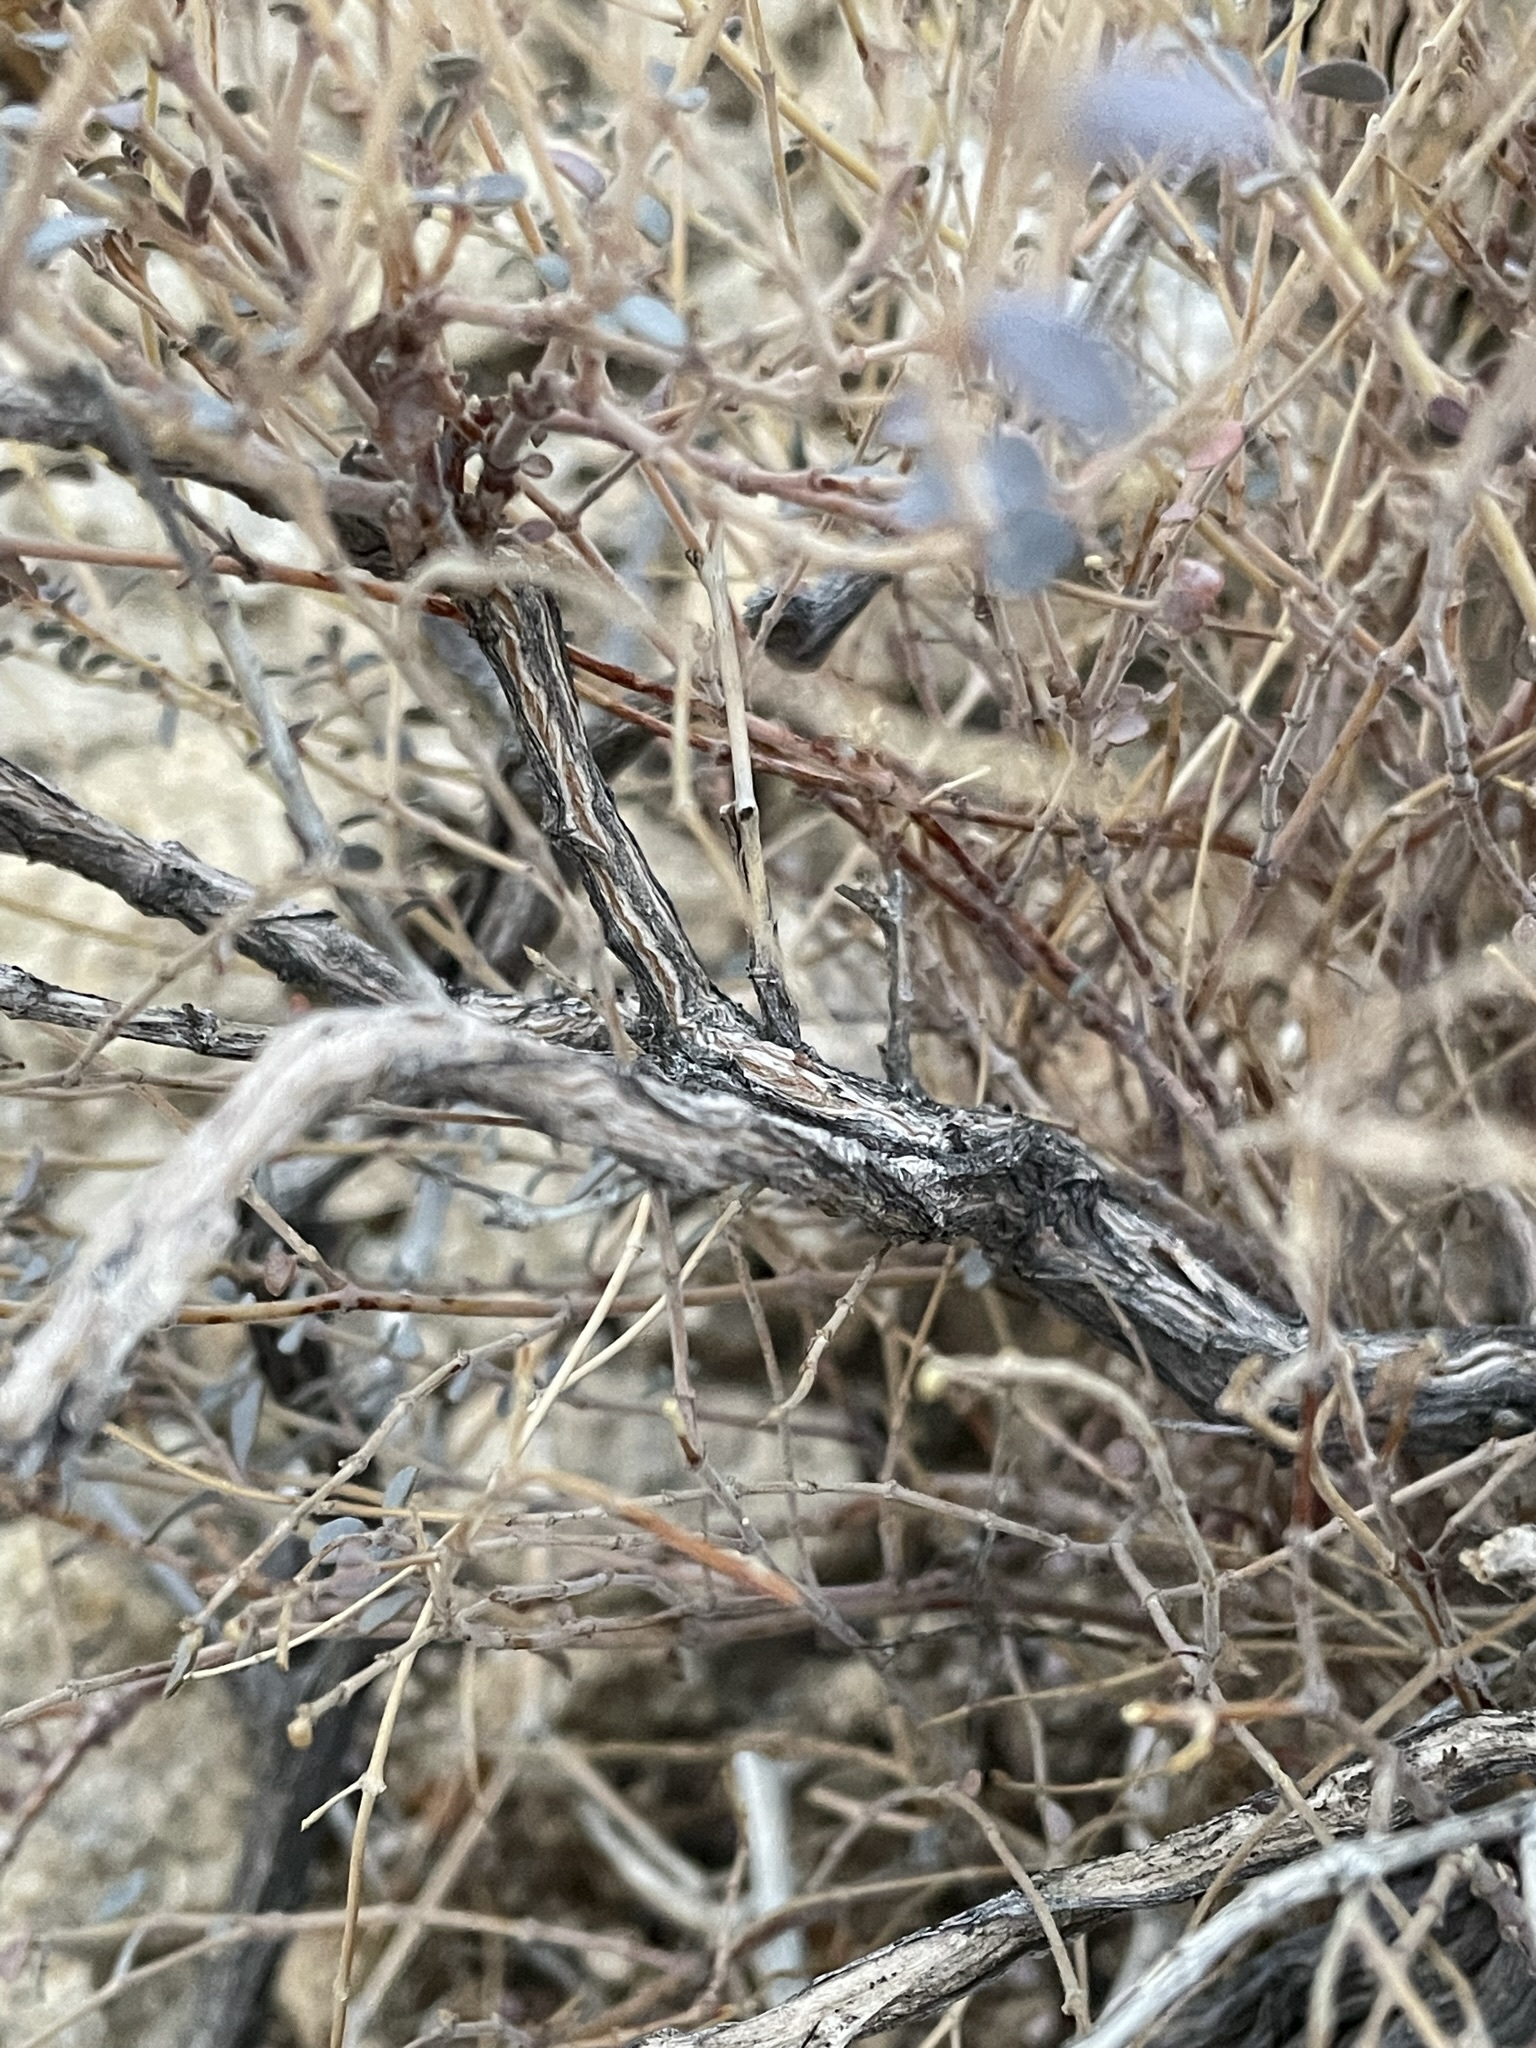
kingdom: Plantae
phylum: Tracheophyta
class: Magnoliopsida
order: Malpighiales
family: Euphorbiaceae
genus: Euphorbia
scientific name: Euphorbia jaegeri
